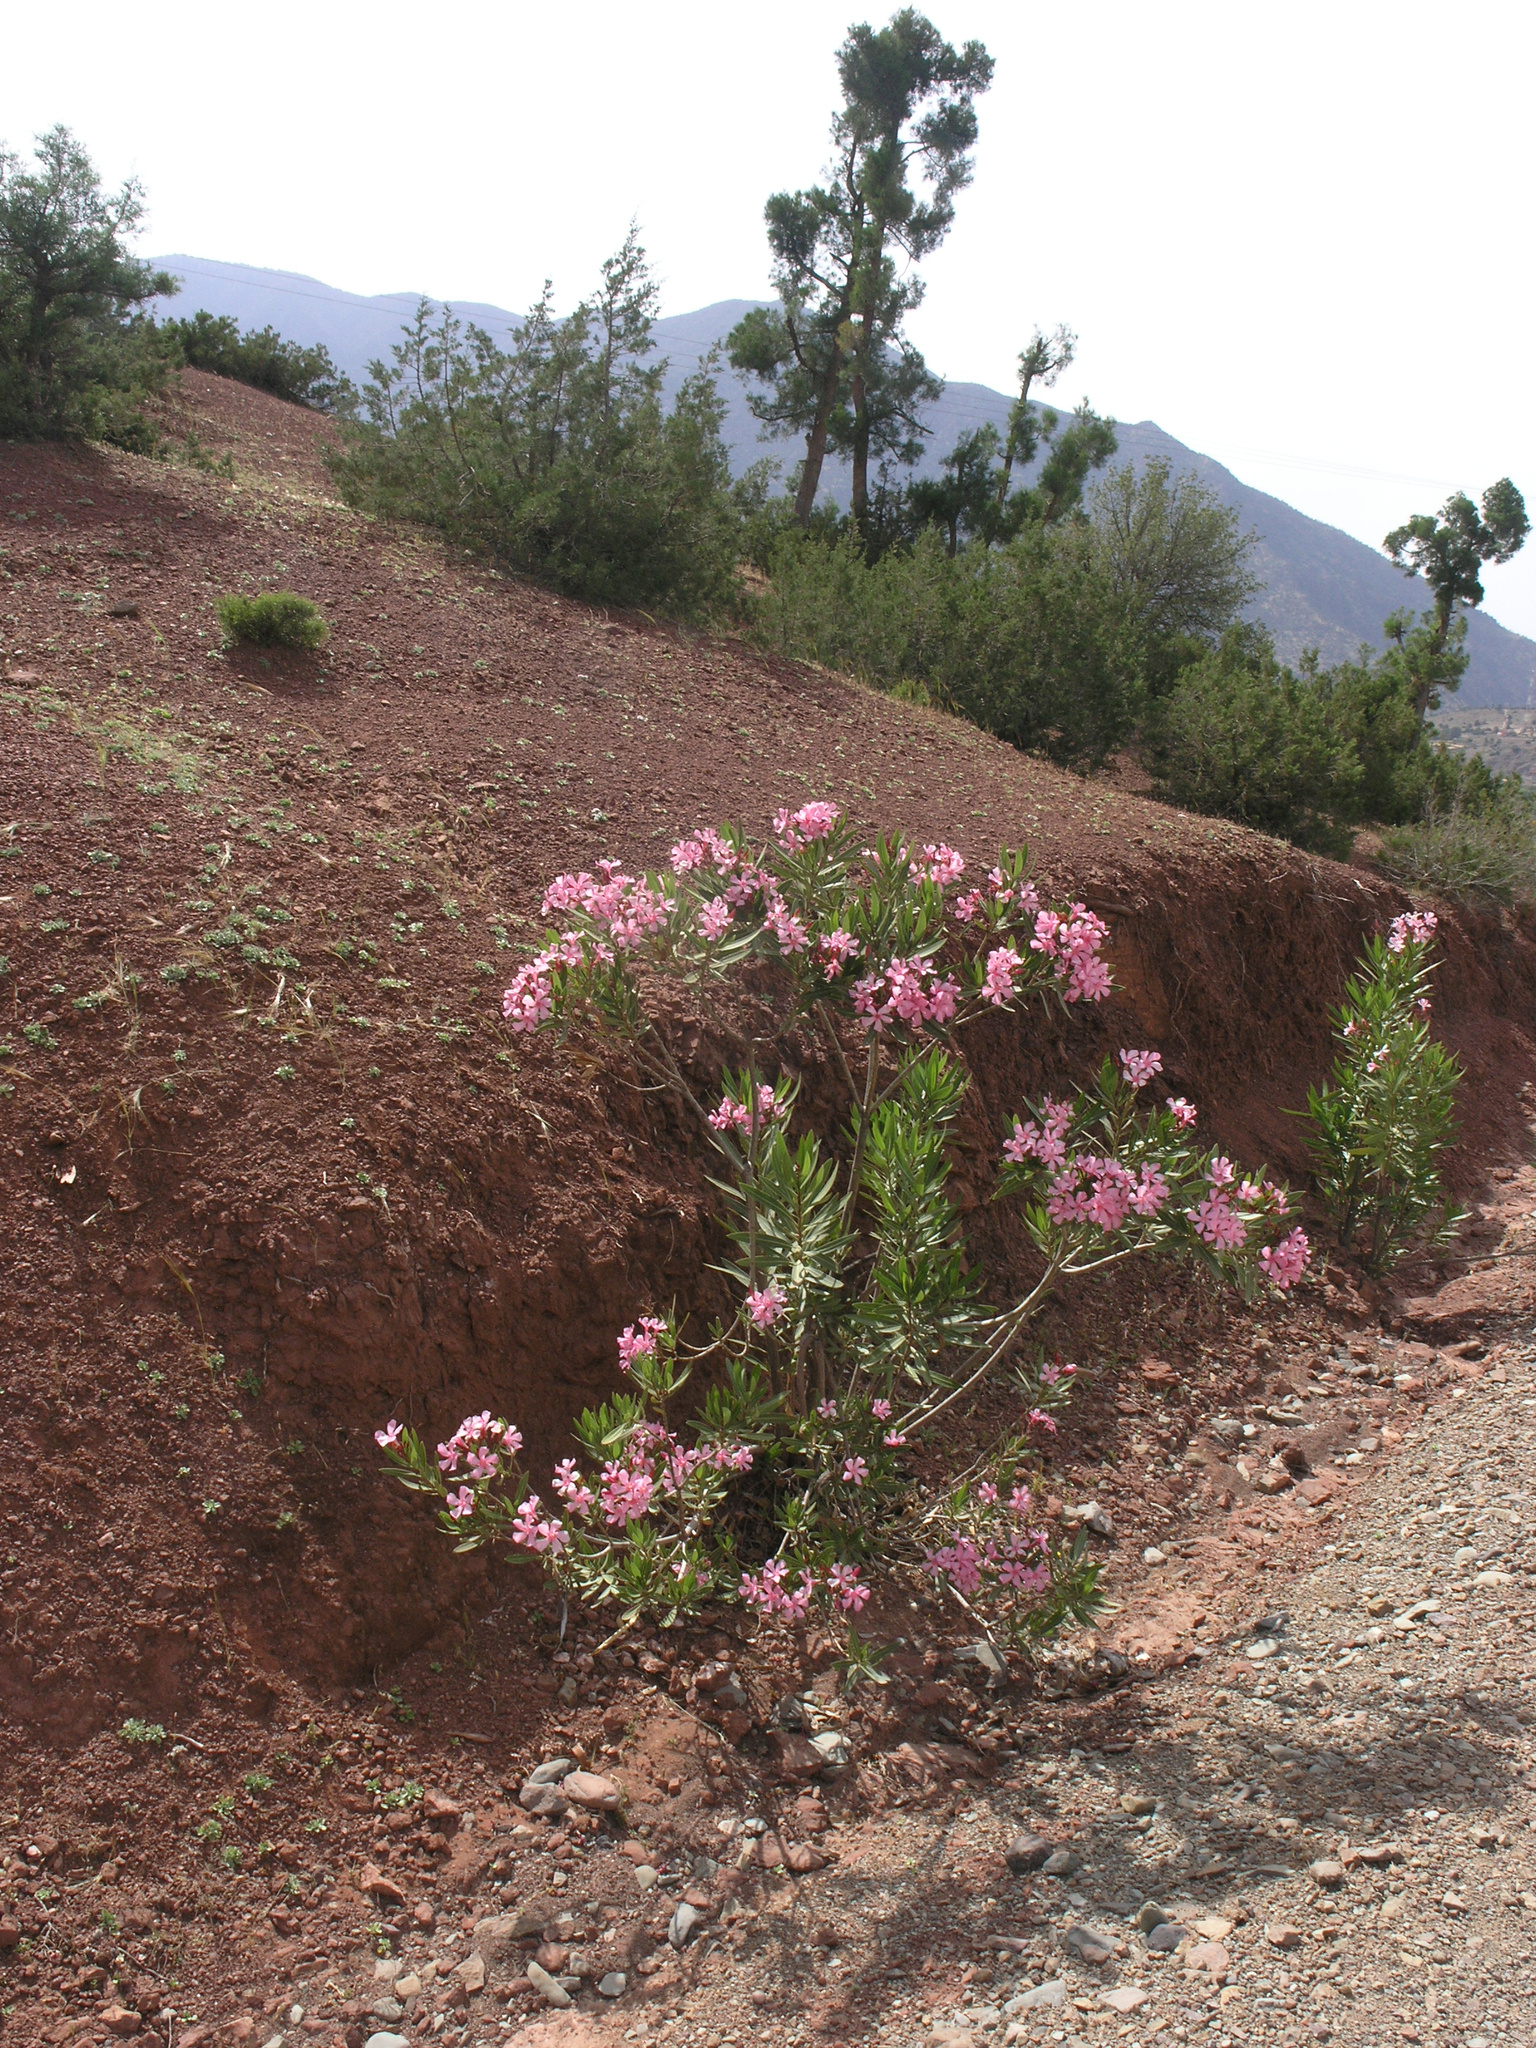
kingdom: Plantae
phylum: Tracheophyta
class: Magnoliopsida
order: Gentianales
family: Apocynaceae
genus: Nerium
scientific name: Nerium oleander
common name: Oleander
